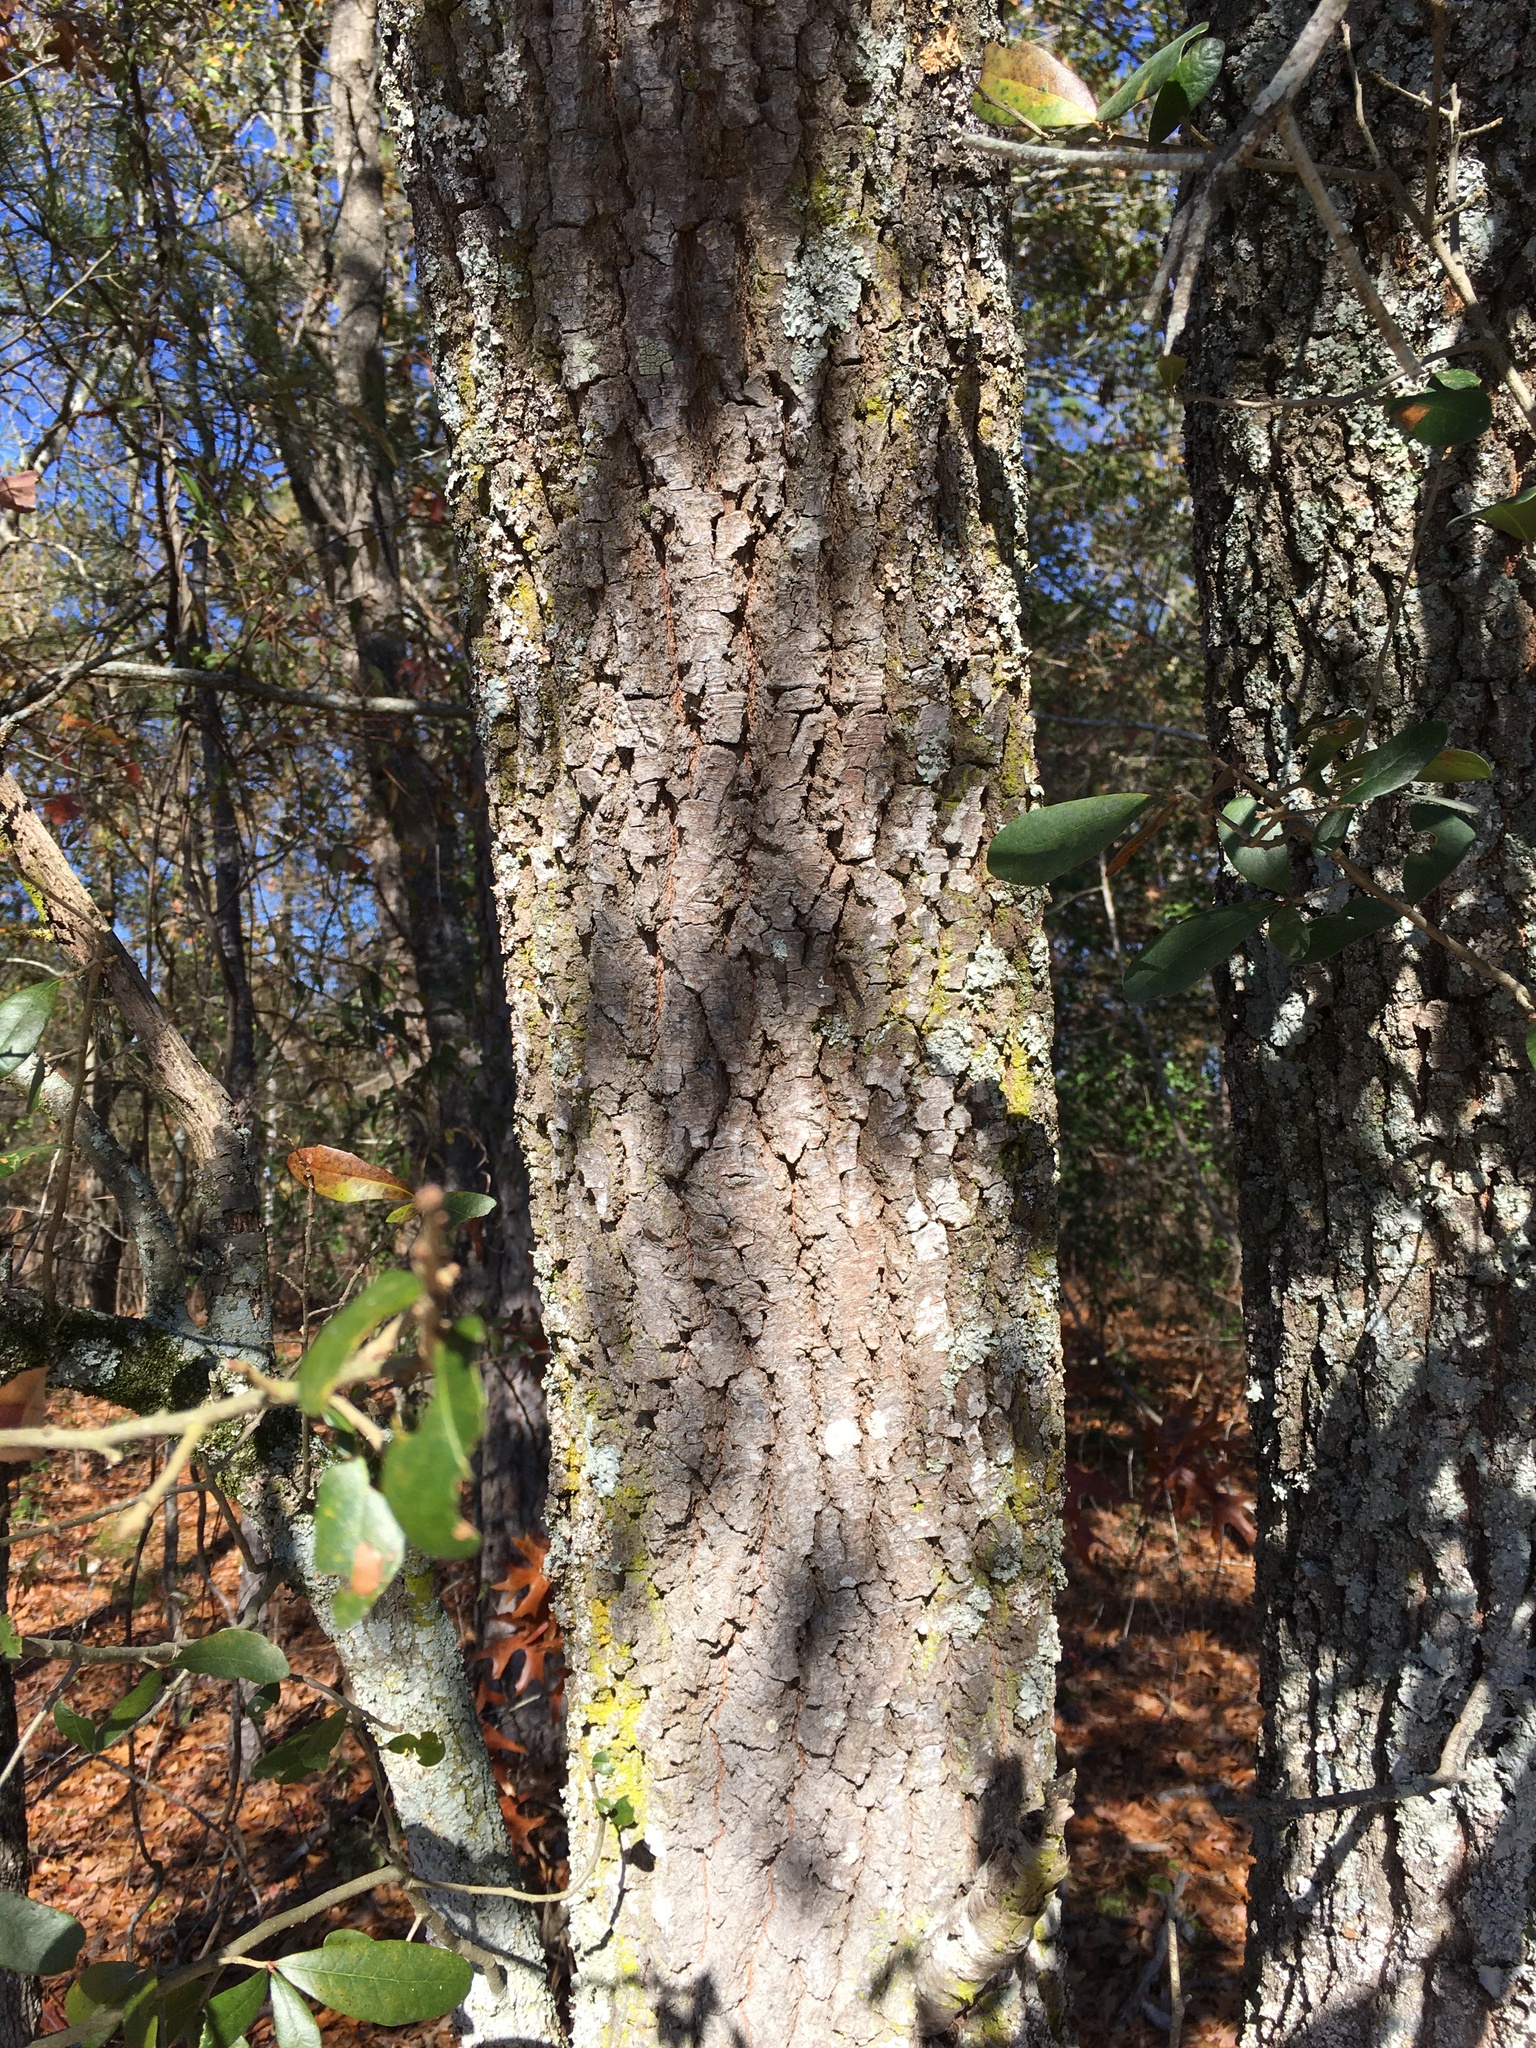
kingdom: Plantae
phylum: Tracheophyta
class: Magnoliopsida
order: Fagales
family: Fagaceae
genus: Quercus
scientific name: Quercus virginiana
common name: Southern live oak
